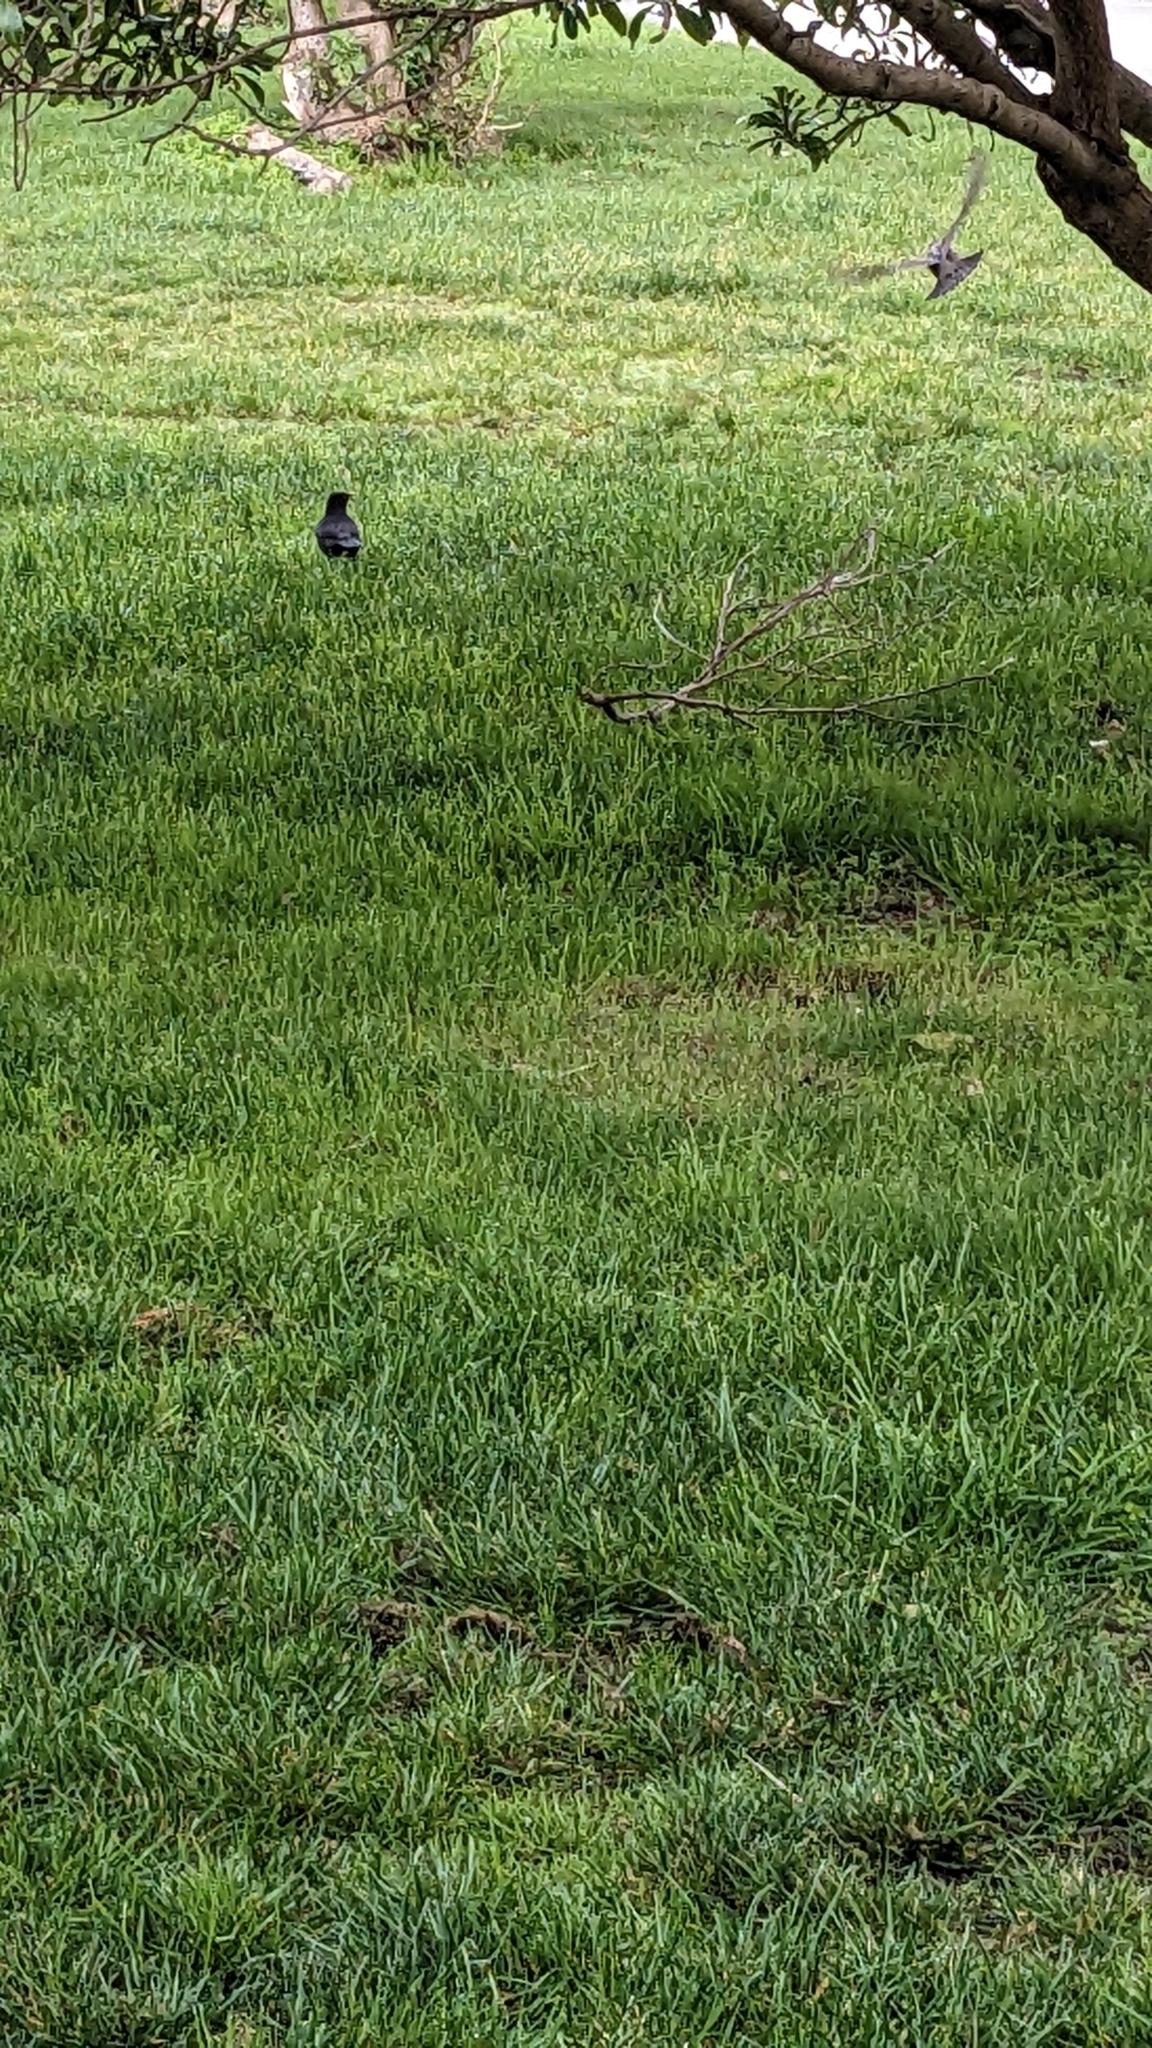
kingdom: Animalia
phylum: Chordata
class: Aves
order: Passeriformes
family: Turdidae
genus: Turdus
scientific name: Turdus merula
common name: Common blackbird
